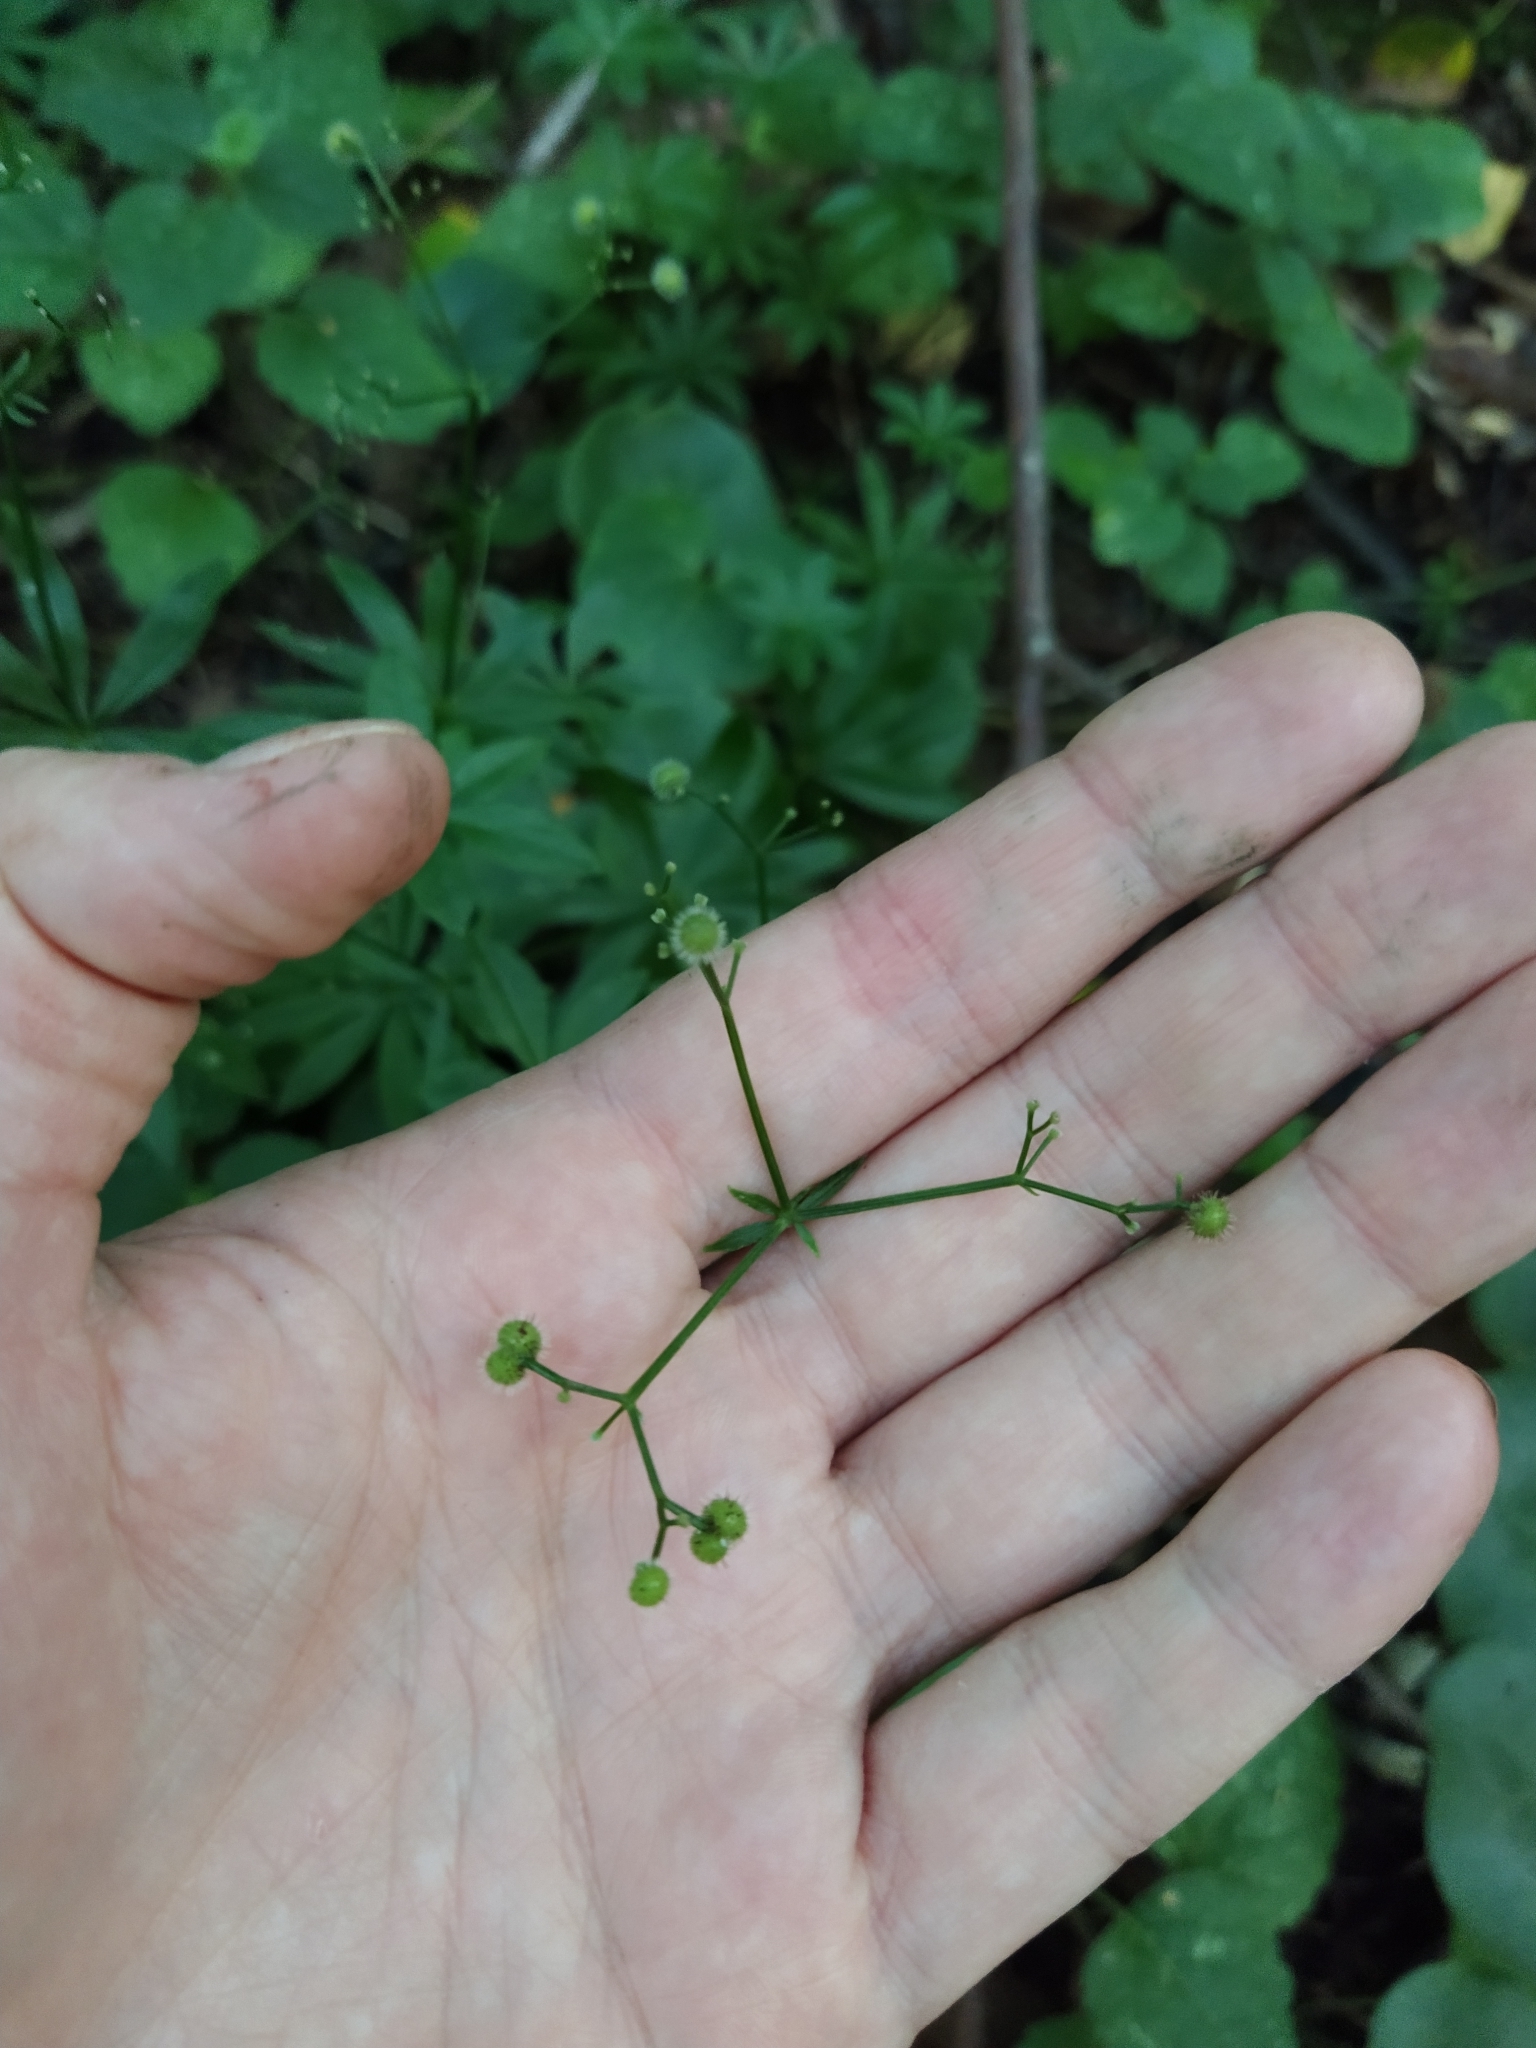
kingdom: Plantae
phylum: Tracheophyta
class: Magnoliopsida
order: Gentianales
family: Rubiaceae
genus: Galium
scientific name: Galium odoratum
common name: Sweet woodruff
